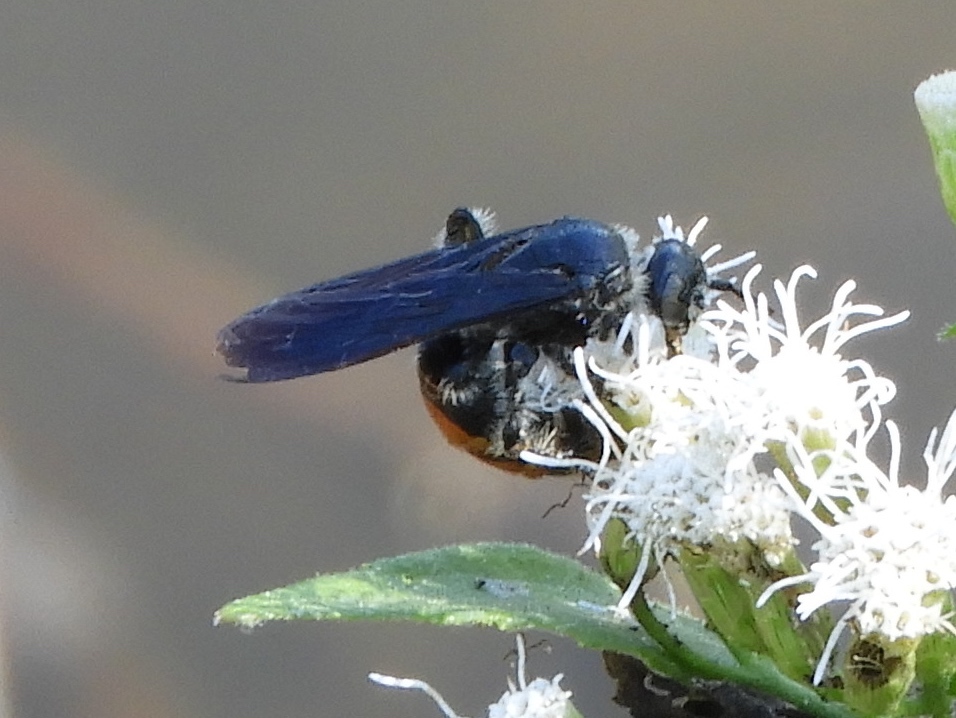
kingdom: Animalia
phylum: Arthropoda
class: Insecta
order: Hymenoptera
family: Scoliidae
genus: Dielis
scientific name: Dielis tolteca
